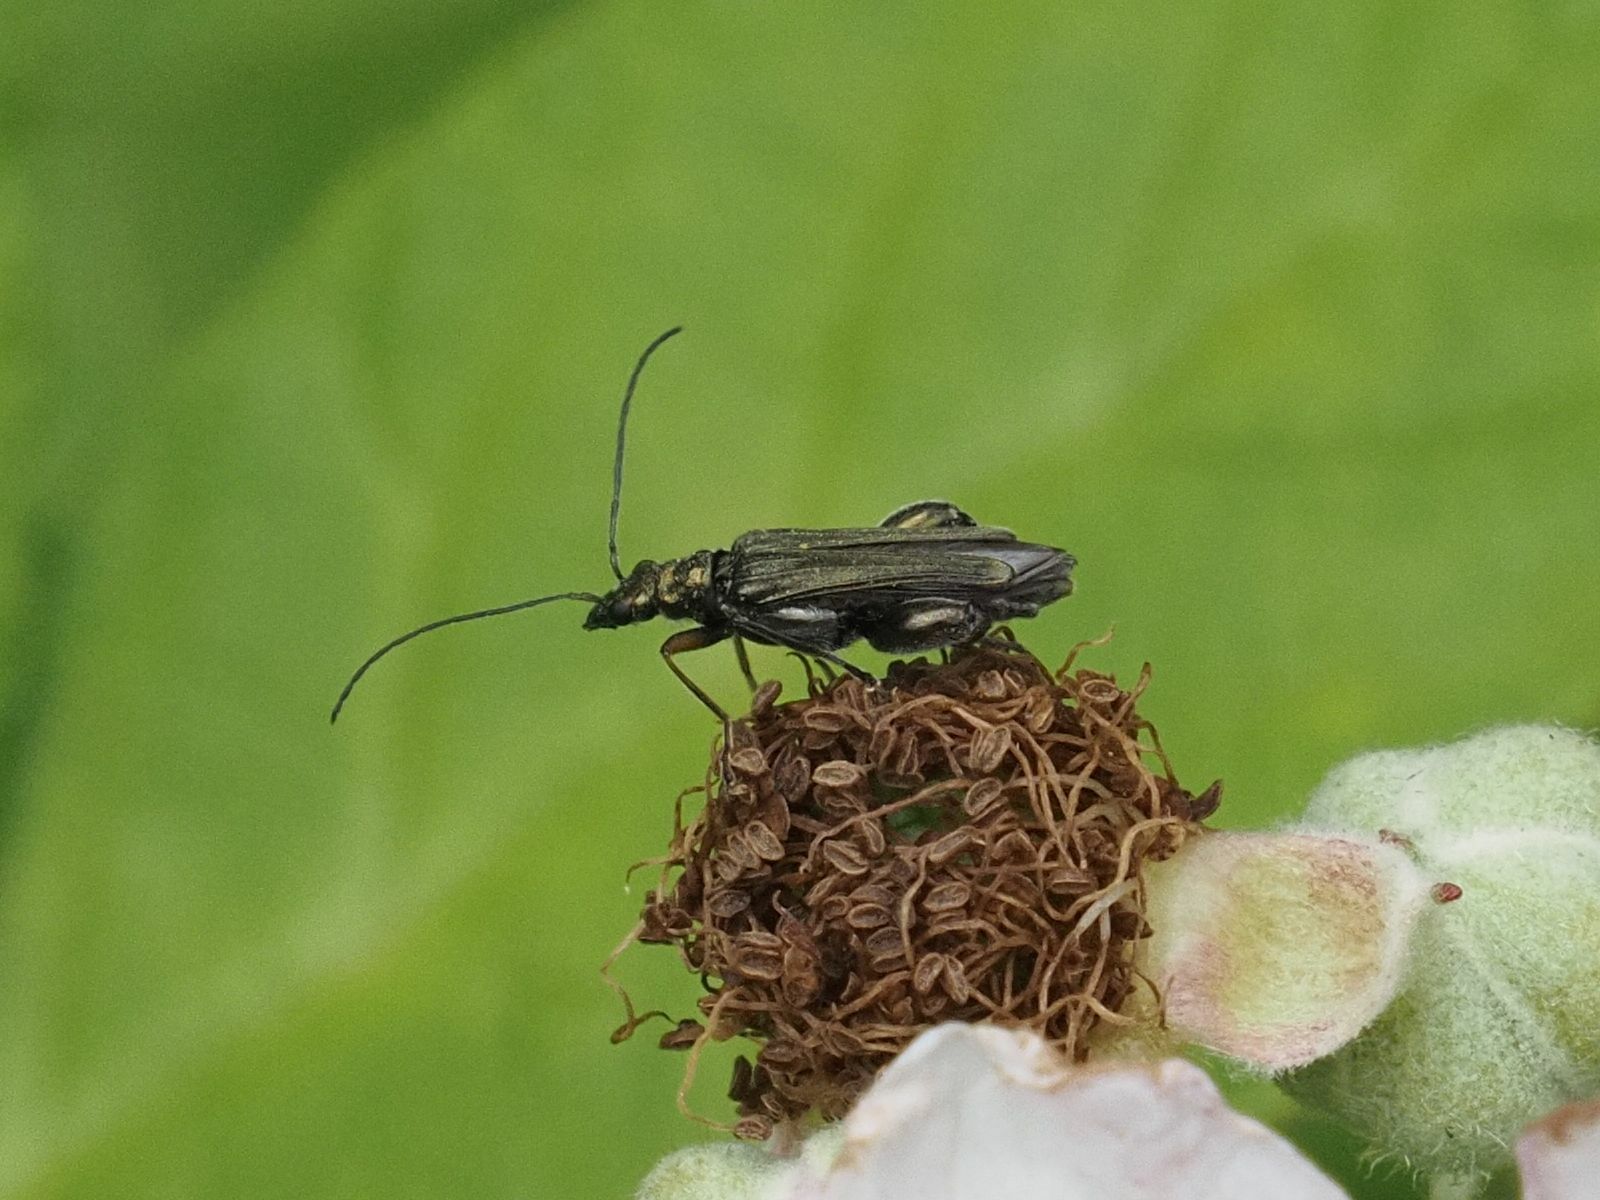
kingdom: Animalia
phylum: Arthropoda
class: Insecta
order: Coleoptera
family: Oedemeridae
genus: Oedemera
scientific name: Oedemera flavipes
